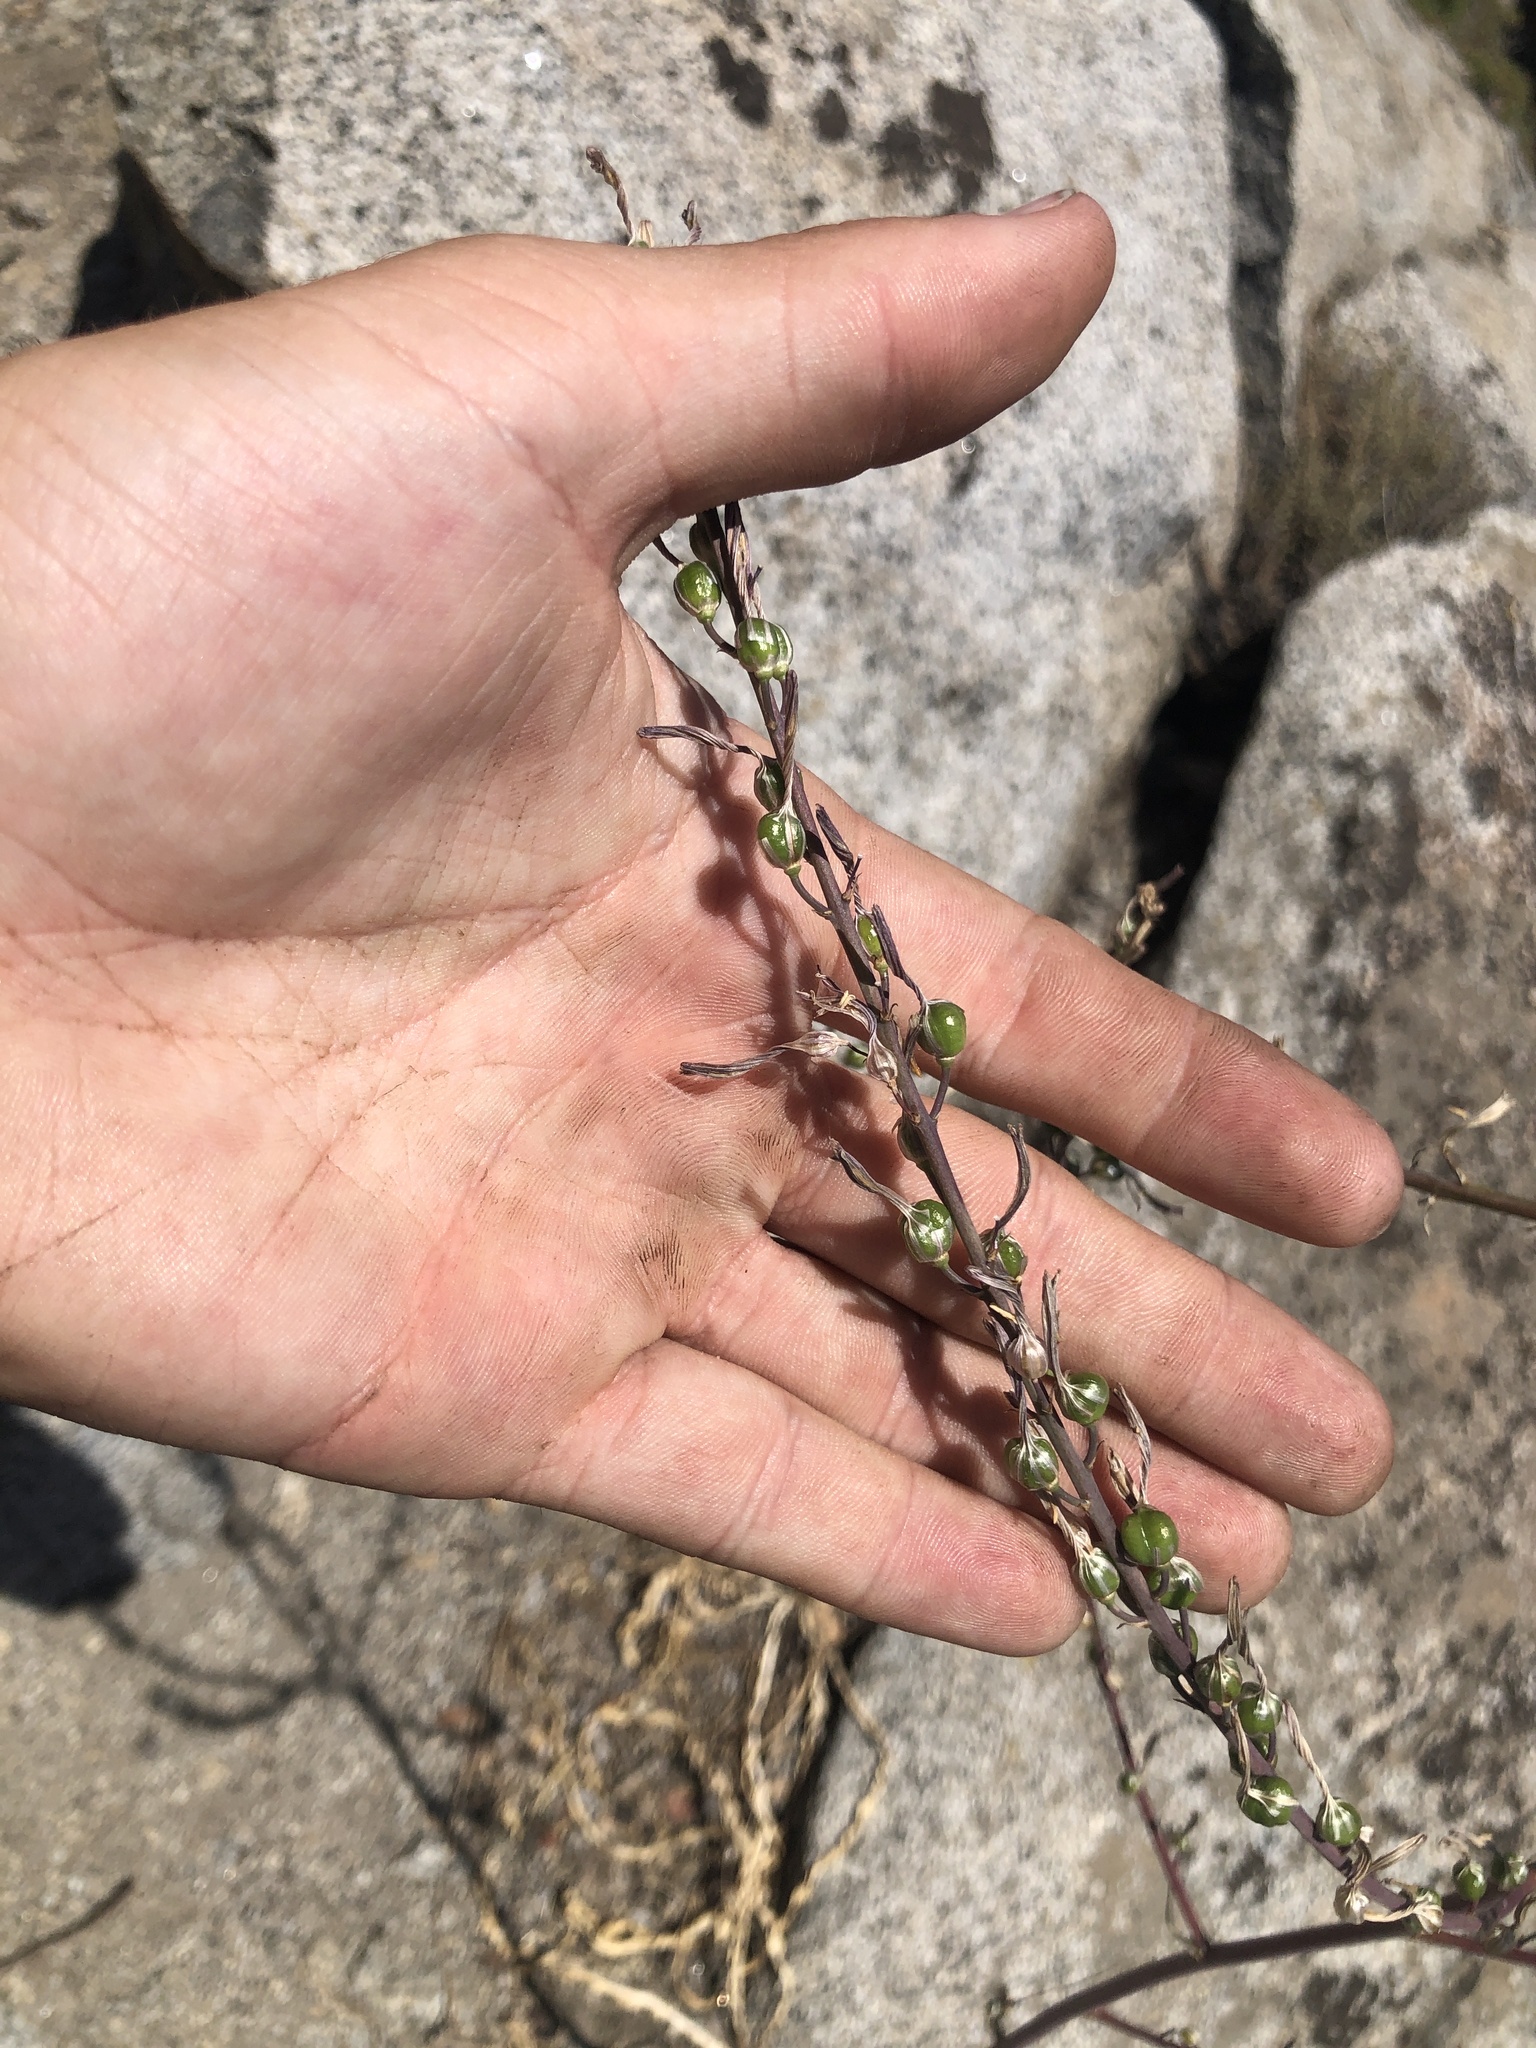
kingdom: Plantae
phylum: Tracheophyta
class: Liliopsida
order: Asparagales
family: Asparagaceae
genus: Chlorogalum
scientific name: Chlorogalum pomeridianum
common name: Amole
